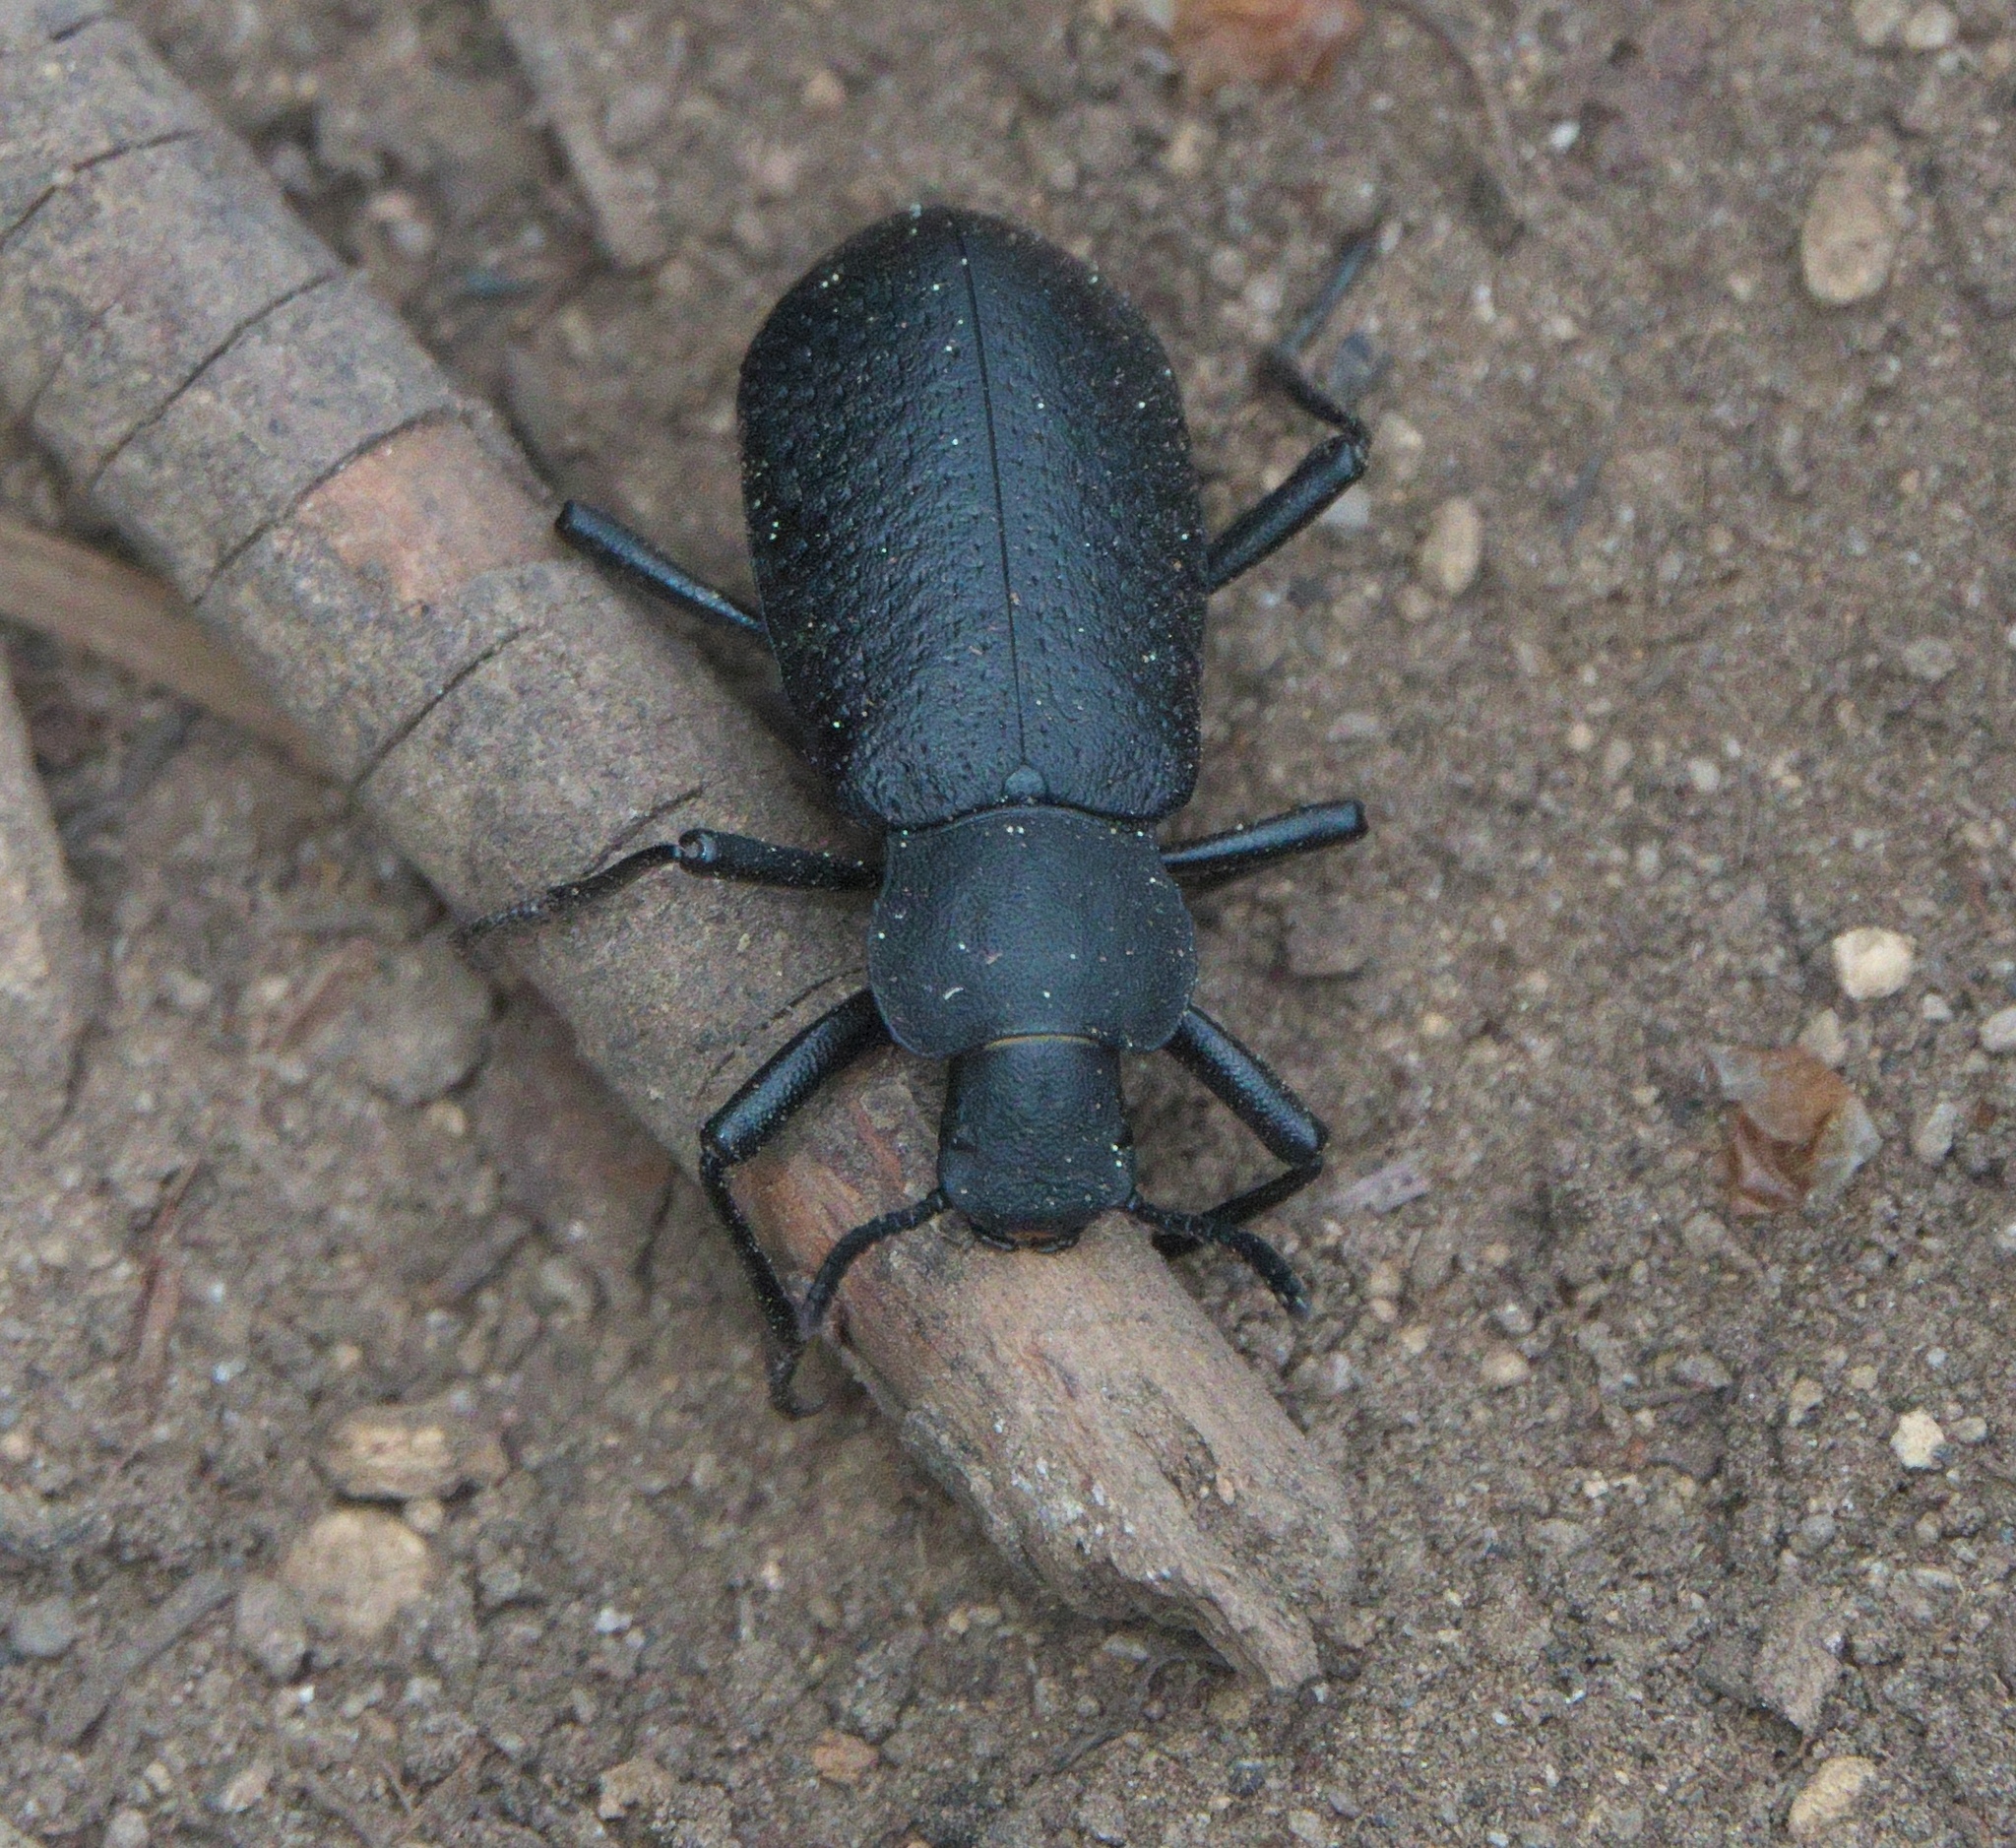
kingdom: Animalia
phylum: Arthropoda
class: Insecta
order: Coleoptera
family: Tenebrionidae
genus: Iphthiminus
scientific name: Iphthiminus serratus
